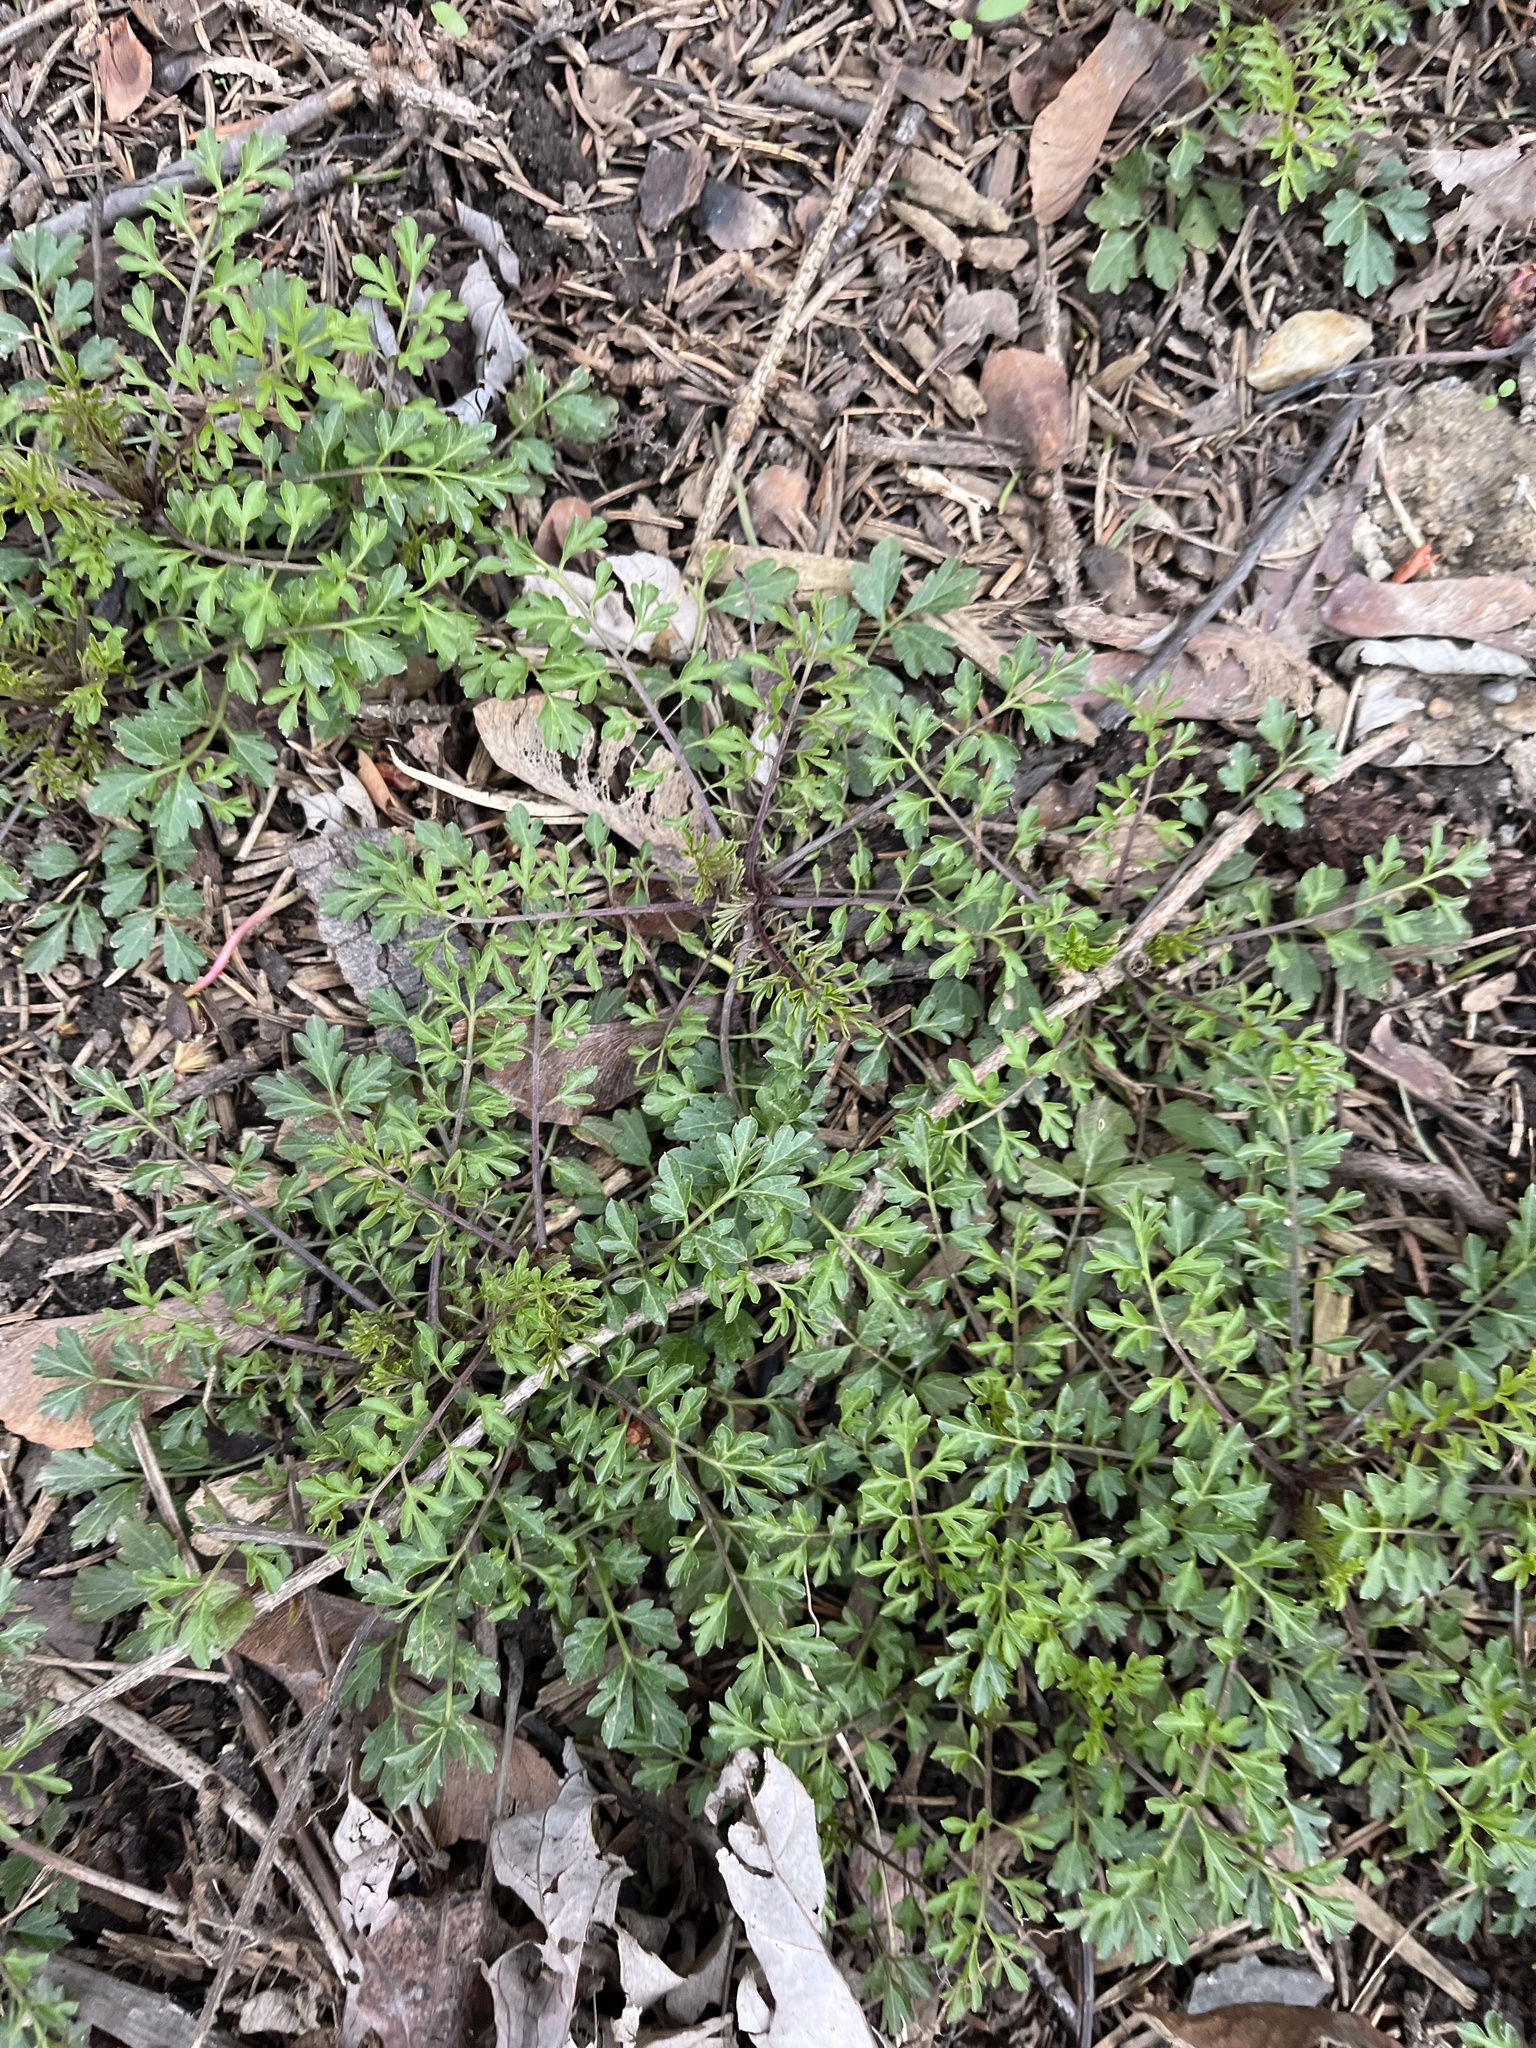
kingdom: Plantae
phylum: Tracheophyta
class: Magnoliopsida
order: Brassicales
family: Brassicaceae
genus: Cardamine
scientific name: Cardamine impatiens
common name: Narrow-leaved bitter-cress
